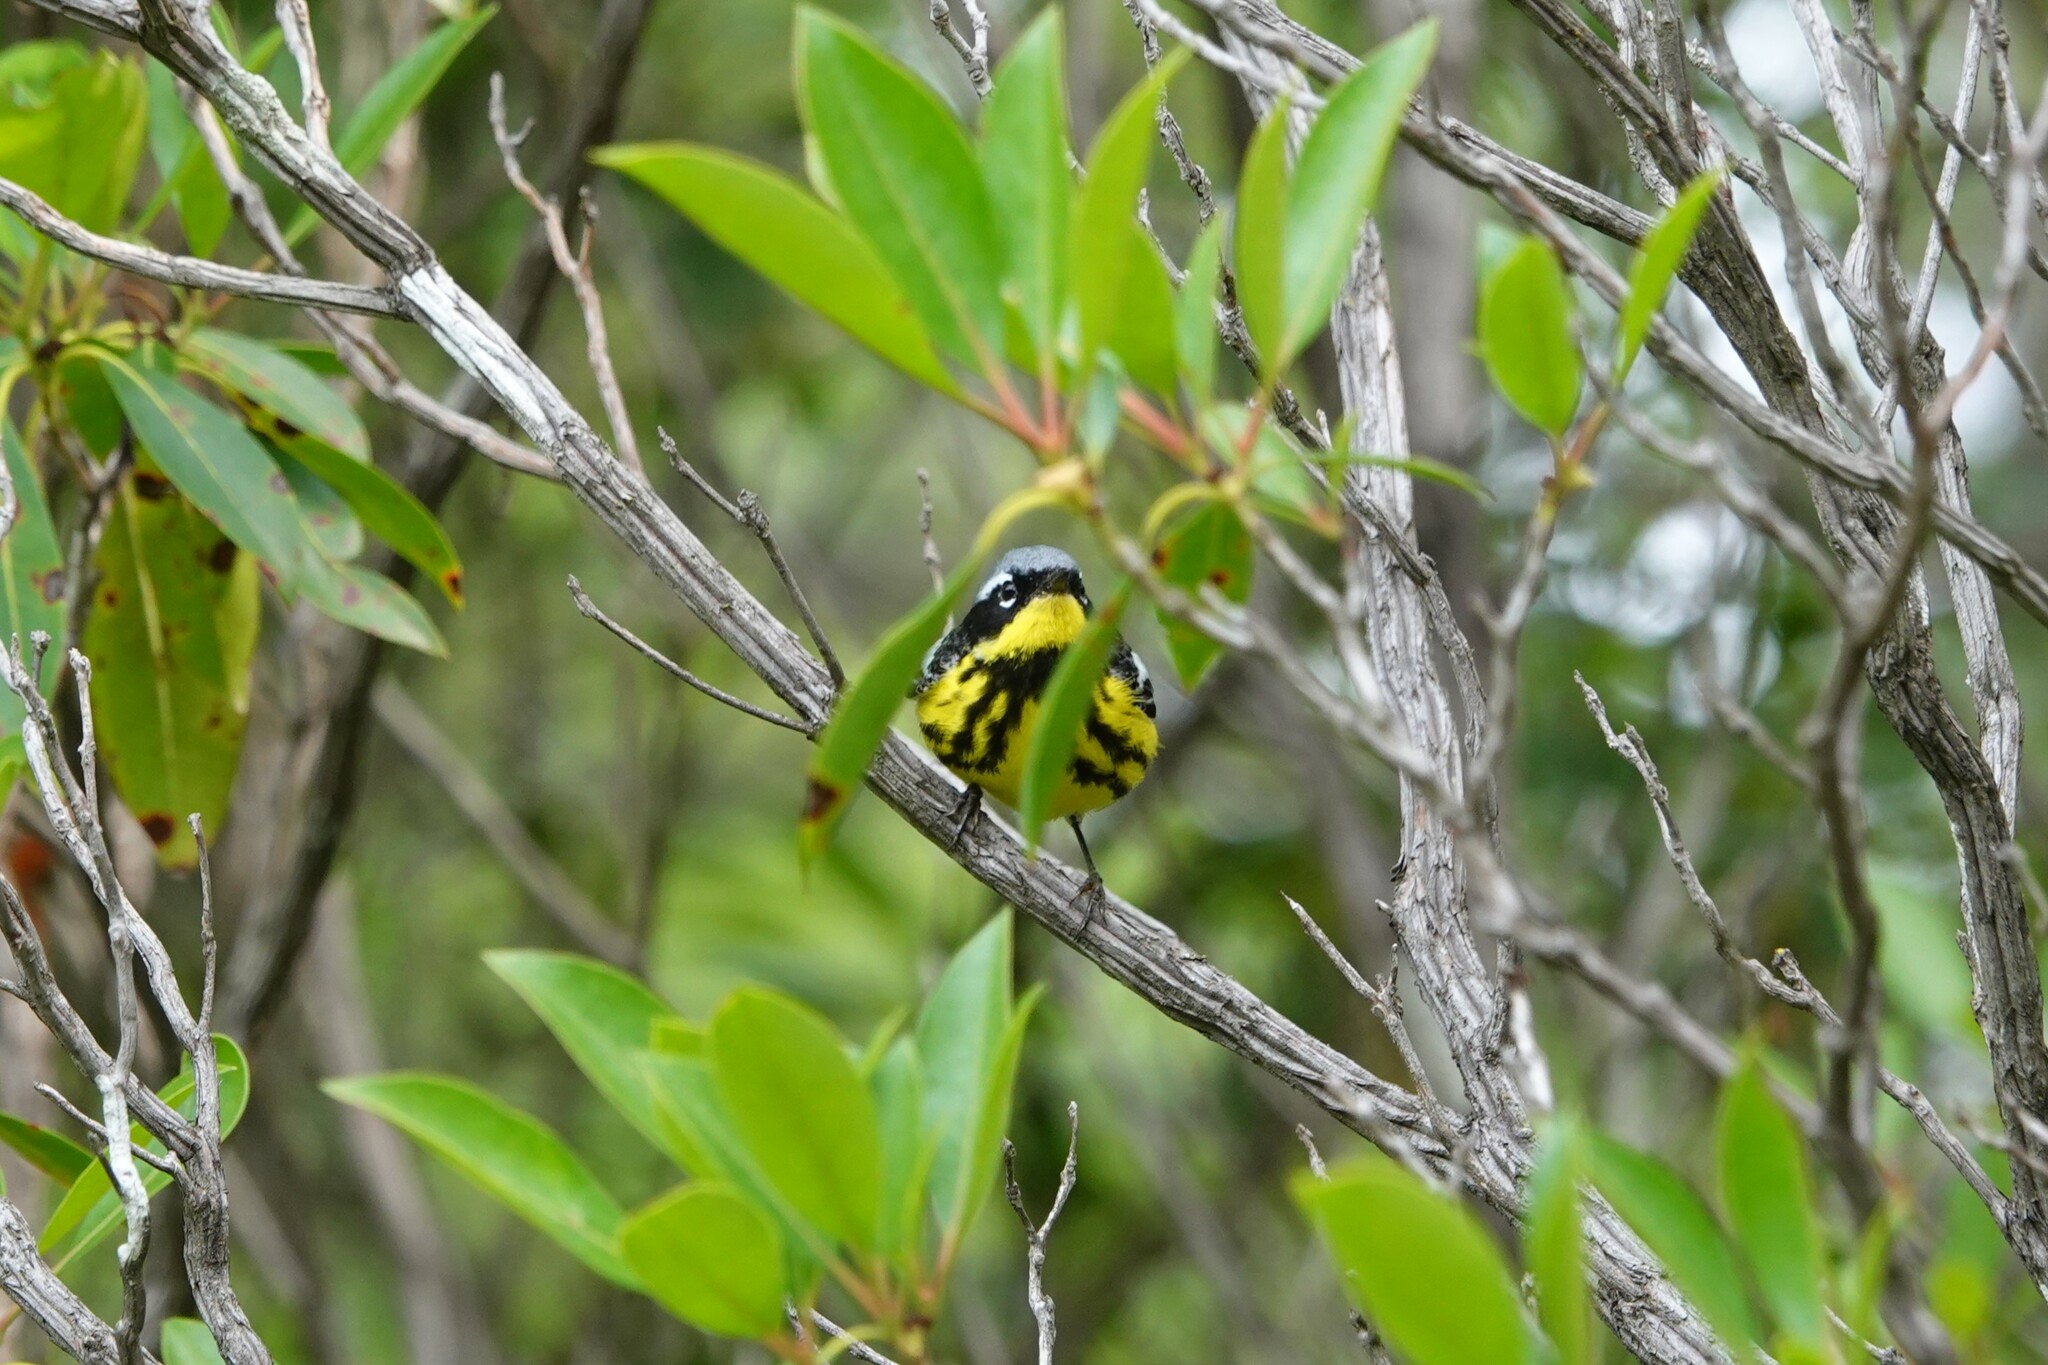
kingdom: Animalia
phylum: Chordata
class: Aves
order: Passeriformes
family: Parulidae
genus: Setophaga
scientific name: Setophaga magnolia
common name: Magnolia warbler
